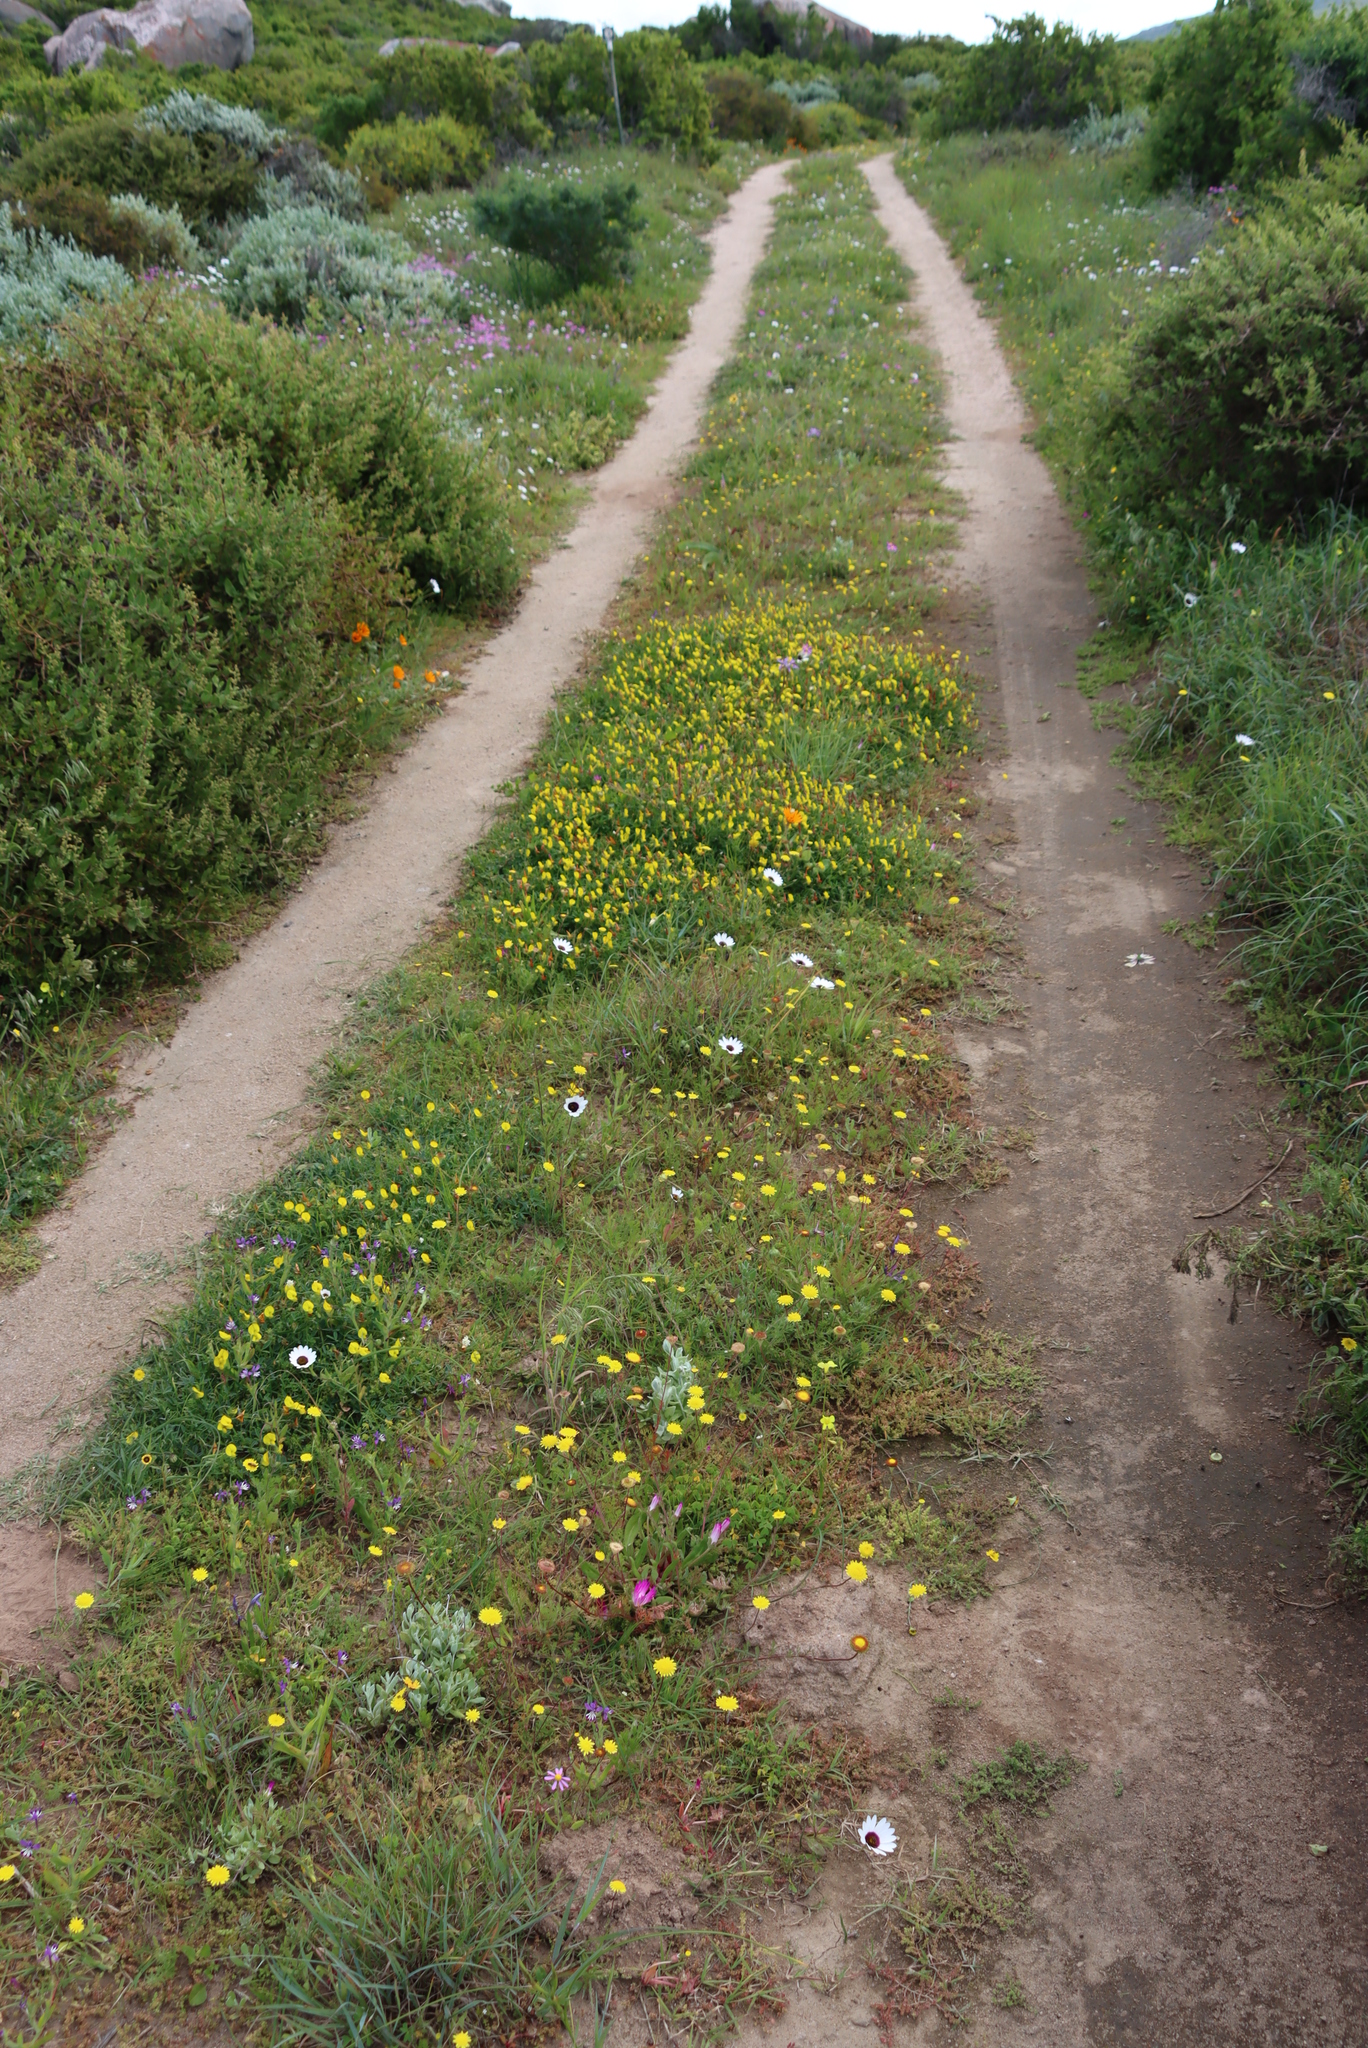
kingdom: Plantae
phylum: Tracheophyta
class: Magnoliopsida
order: Asterales
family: Asteraceae
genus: Cotula
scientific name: Cotula pruinosa
